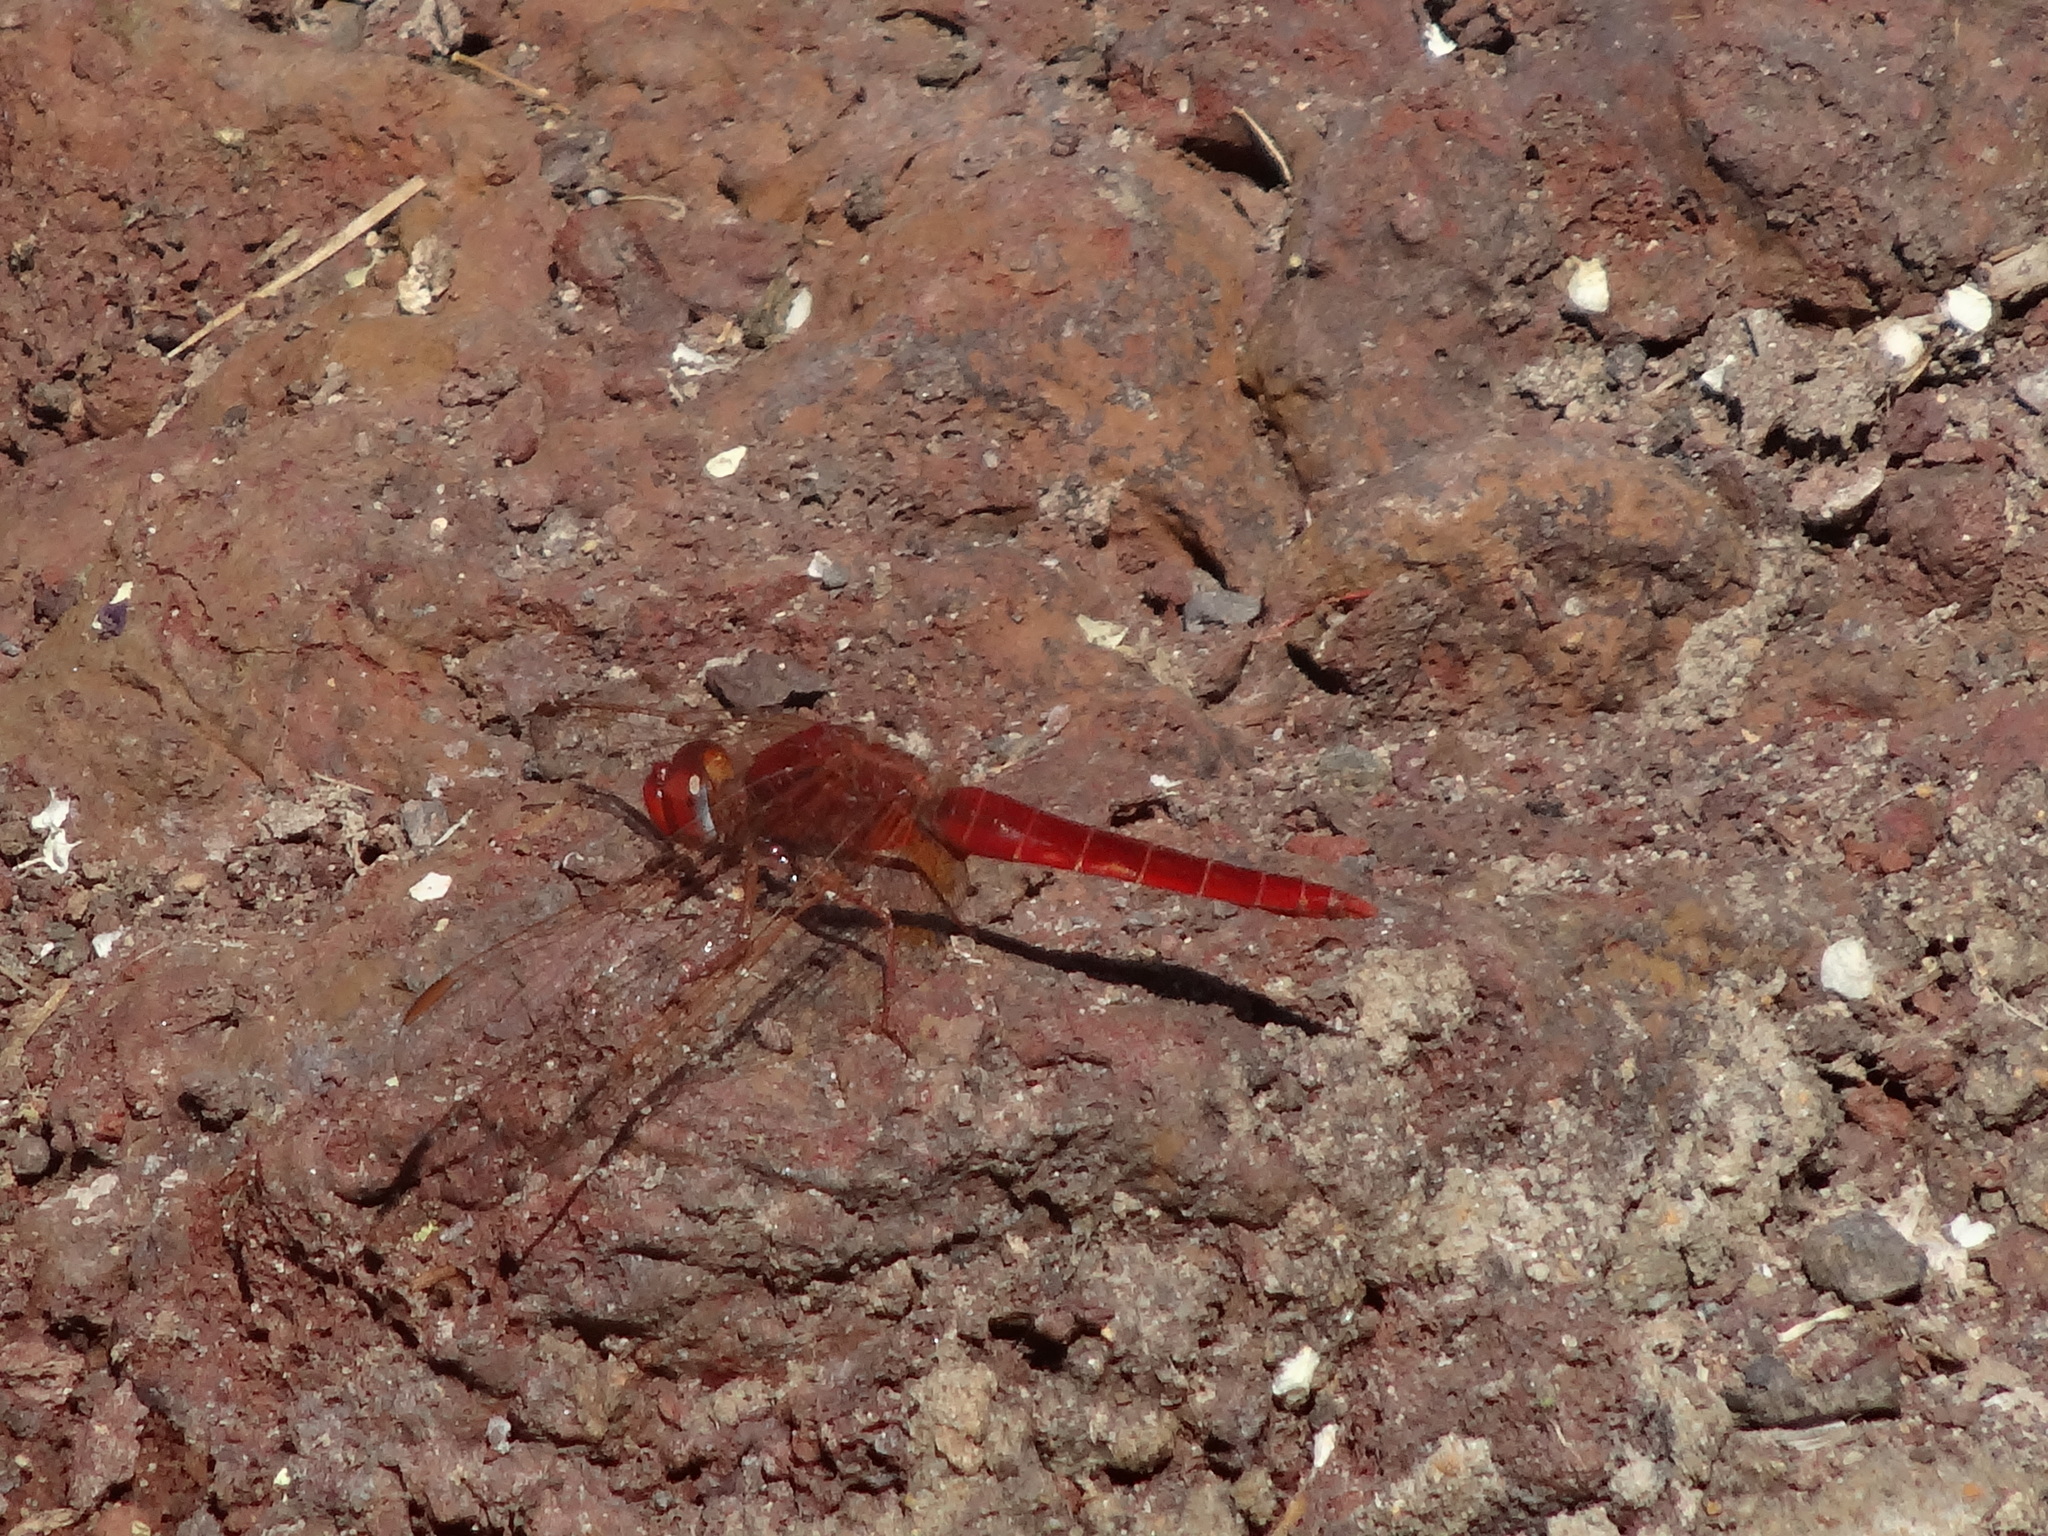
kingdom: Animalia
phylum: Arthropoda
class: Insecta
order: Odonata
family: Libellulidae
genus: Crocothemis
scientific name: Crocothemis erythraea
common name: Scarlet dragonfly
